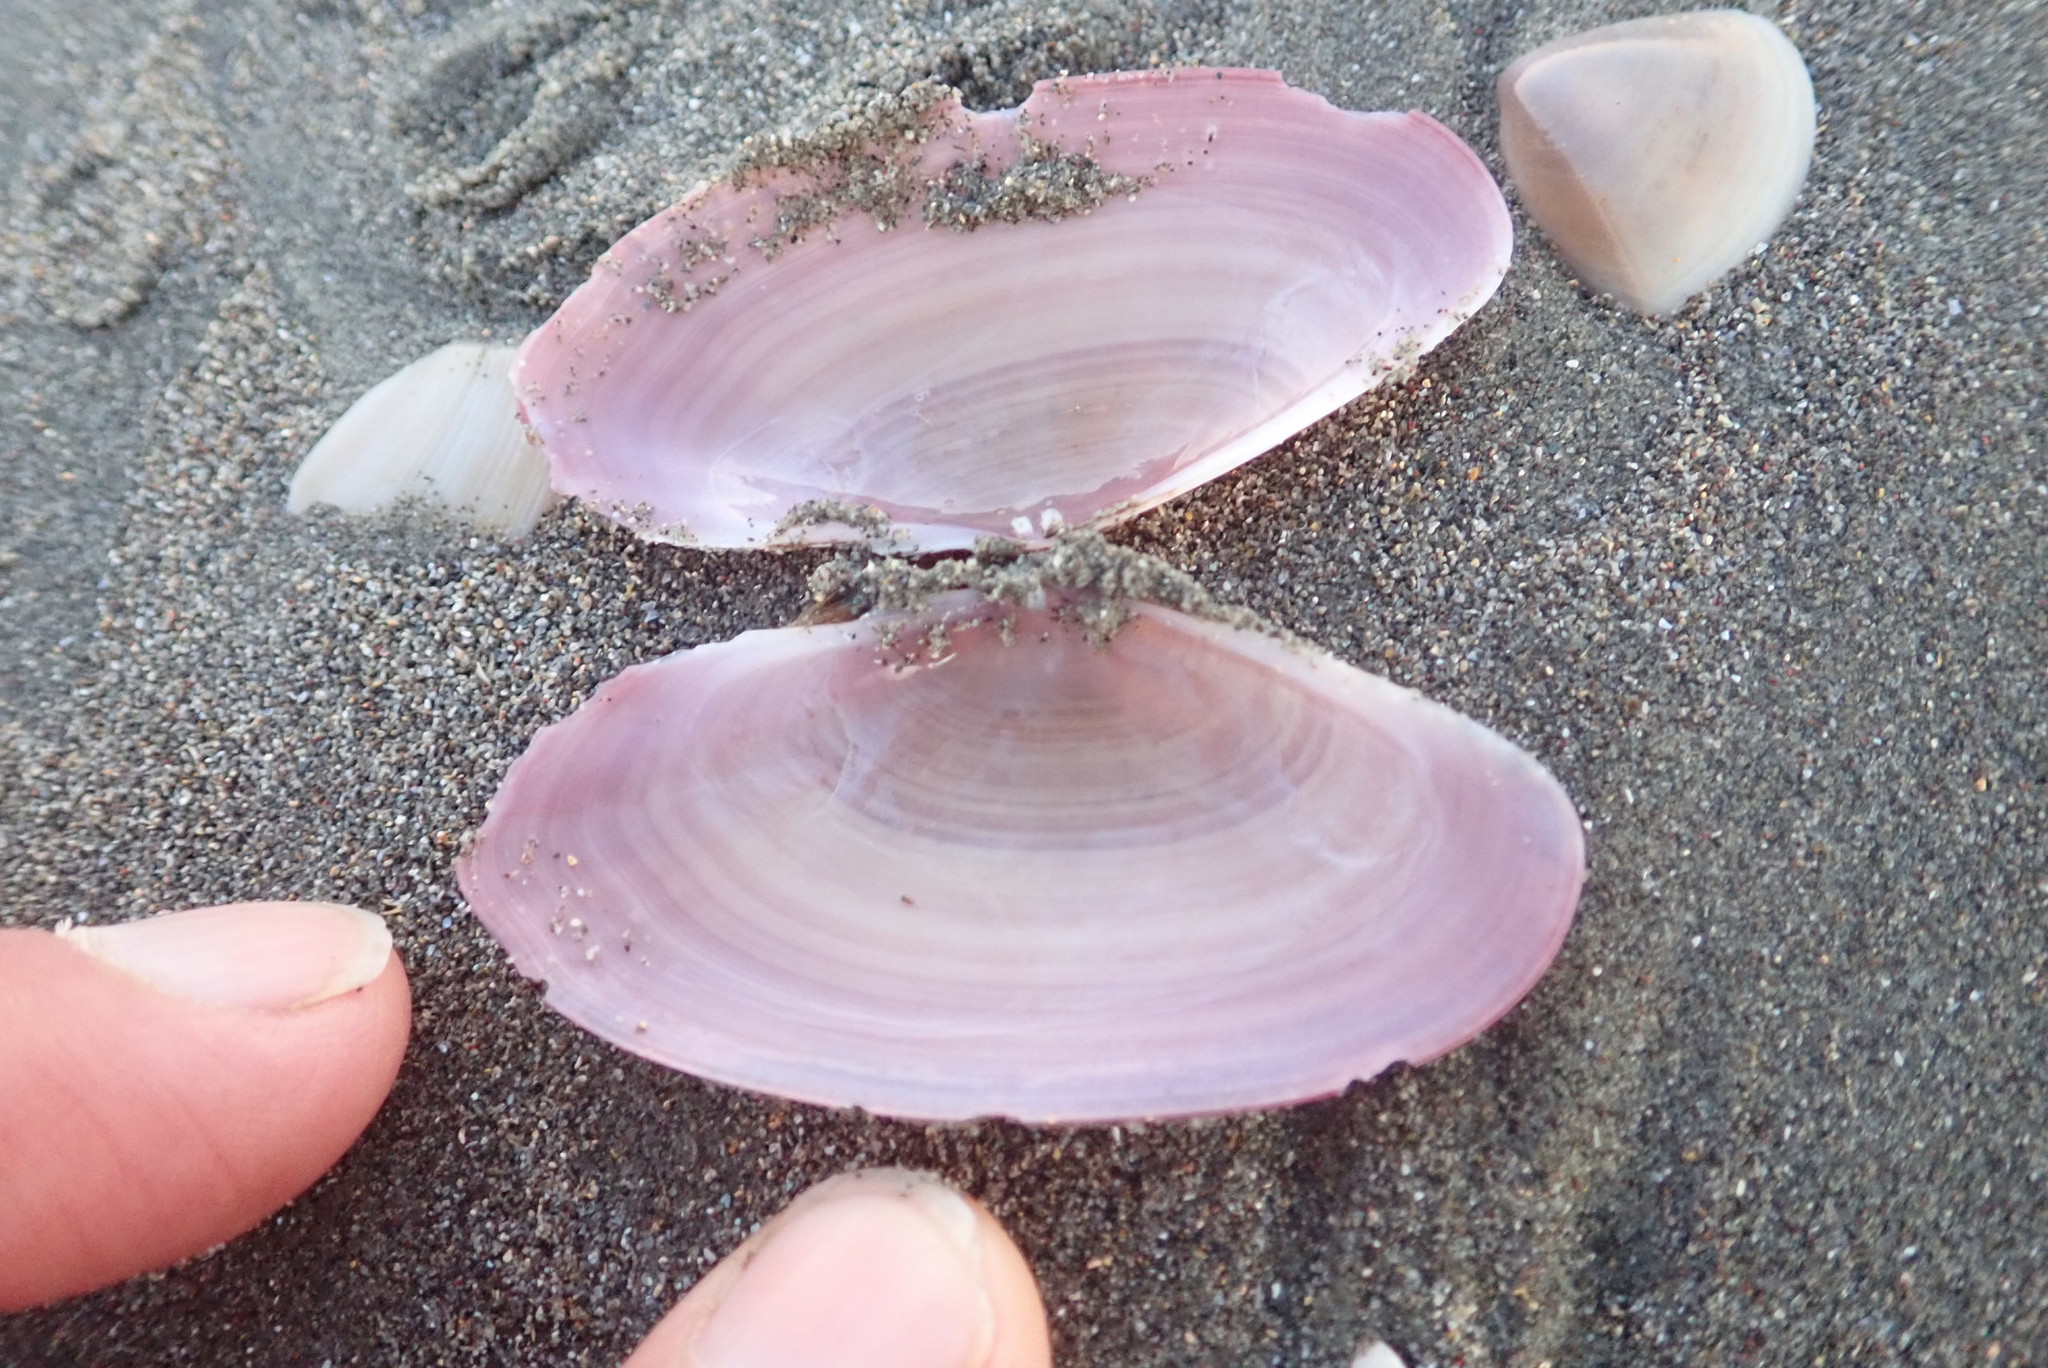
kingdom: Animalia
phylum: Mollusca
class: Bivalvia
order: Cardiida
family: Psammobiidae
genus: Gari
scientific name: Gari lineolata
